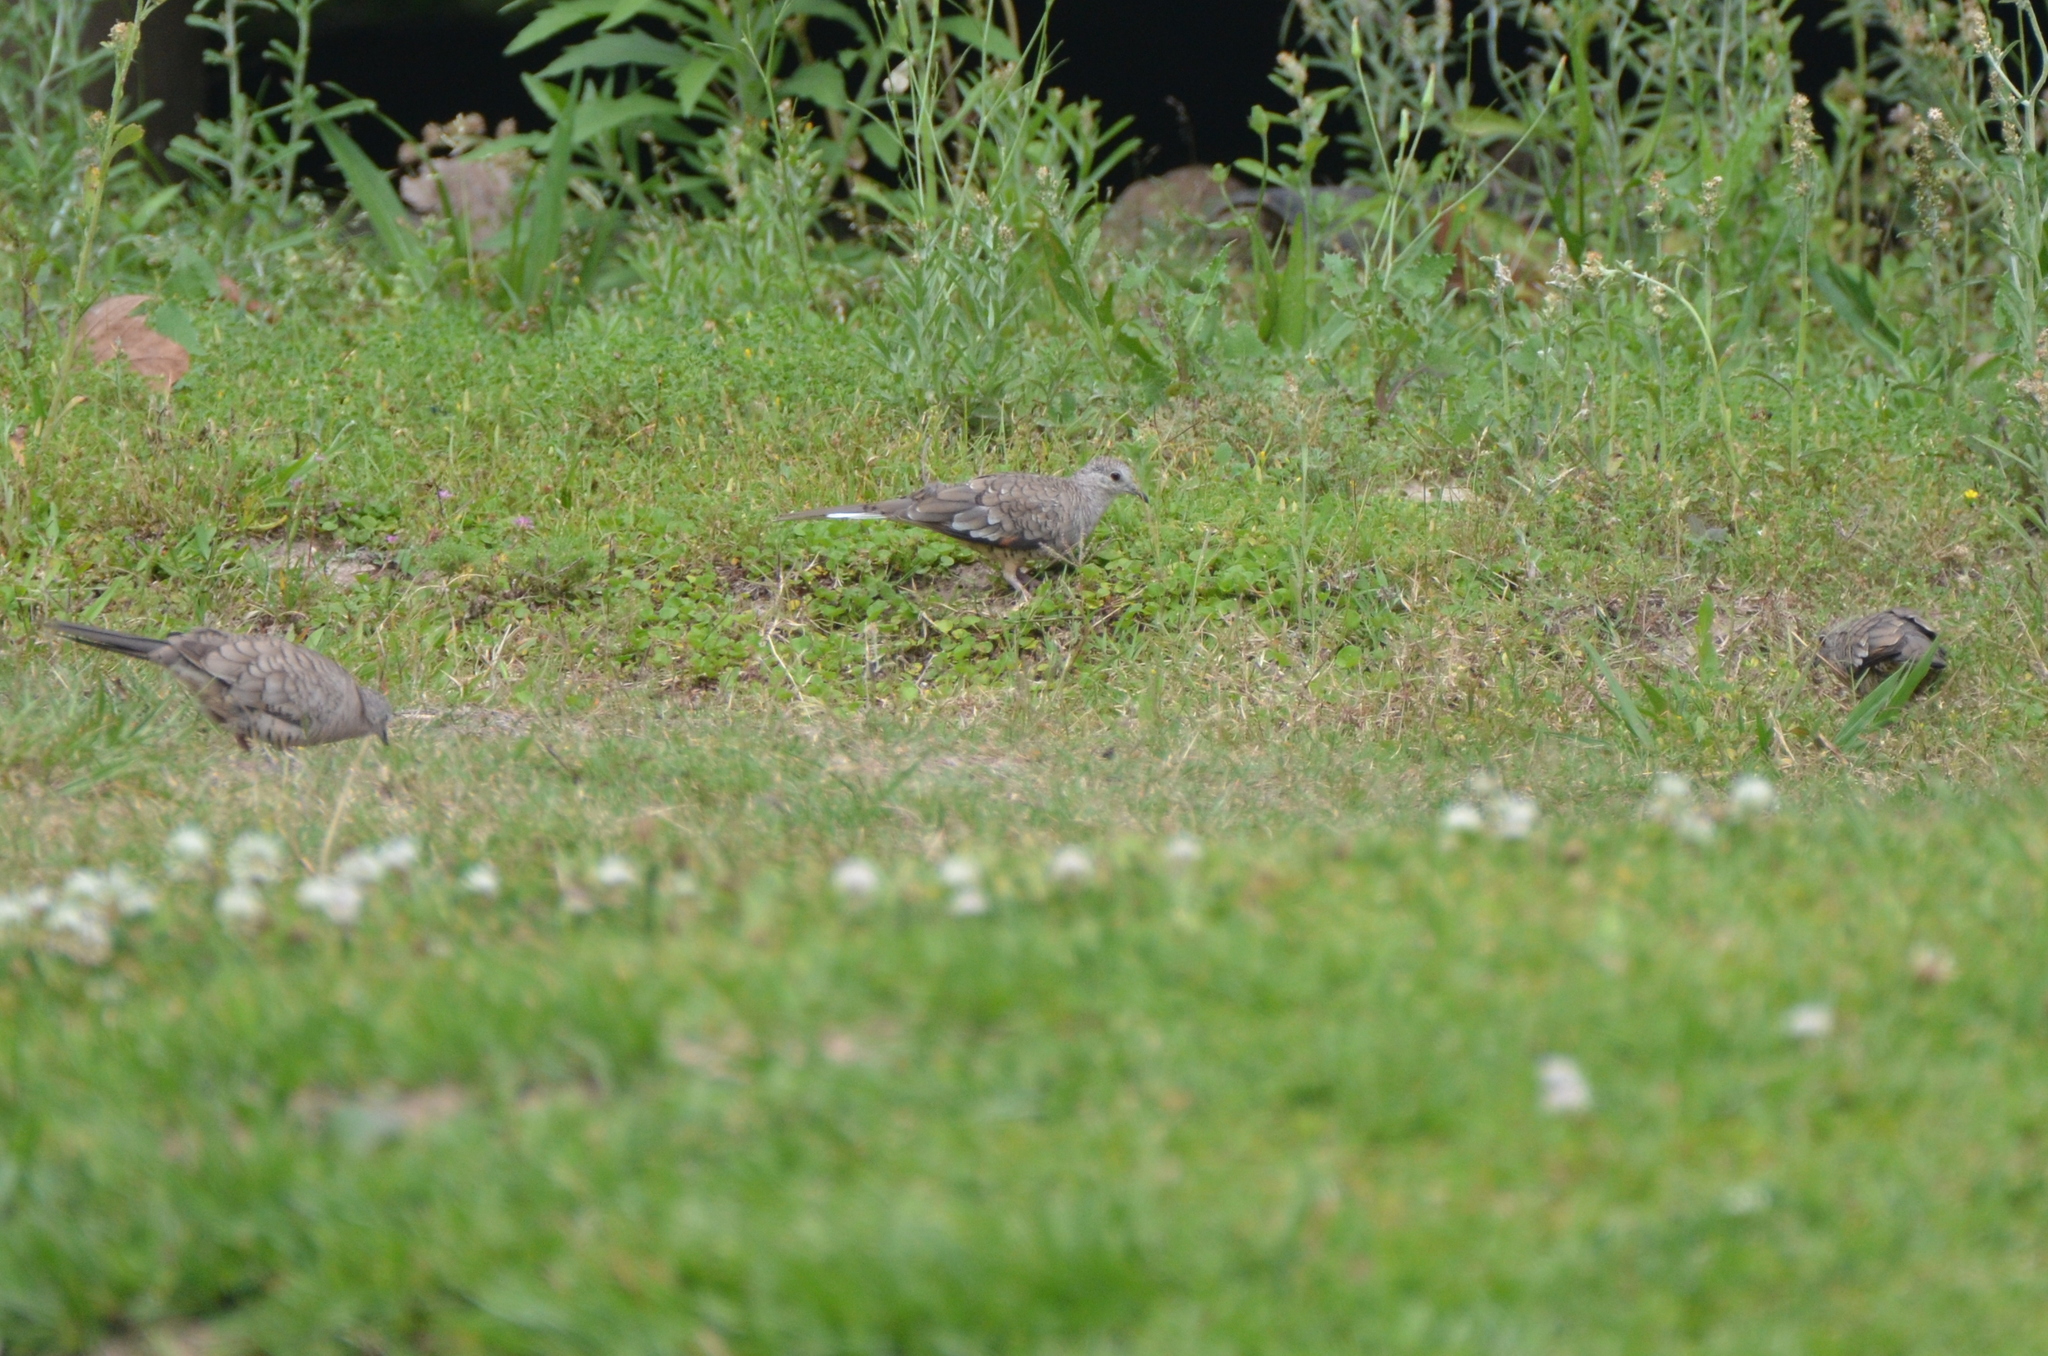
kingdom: Animalia
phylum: Chordata
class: Aves
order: Columbiformes
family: Columbidae
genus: Columbina
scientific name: Columbina inca
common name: Inca dove
